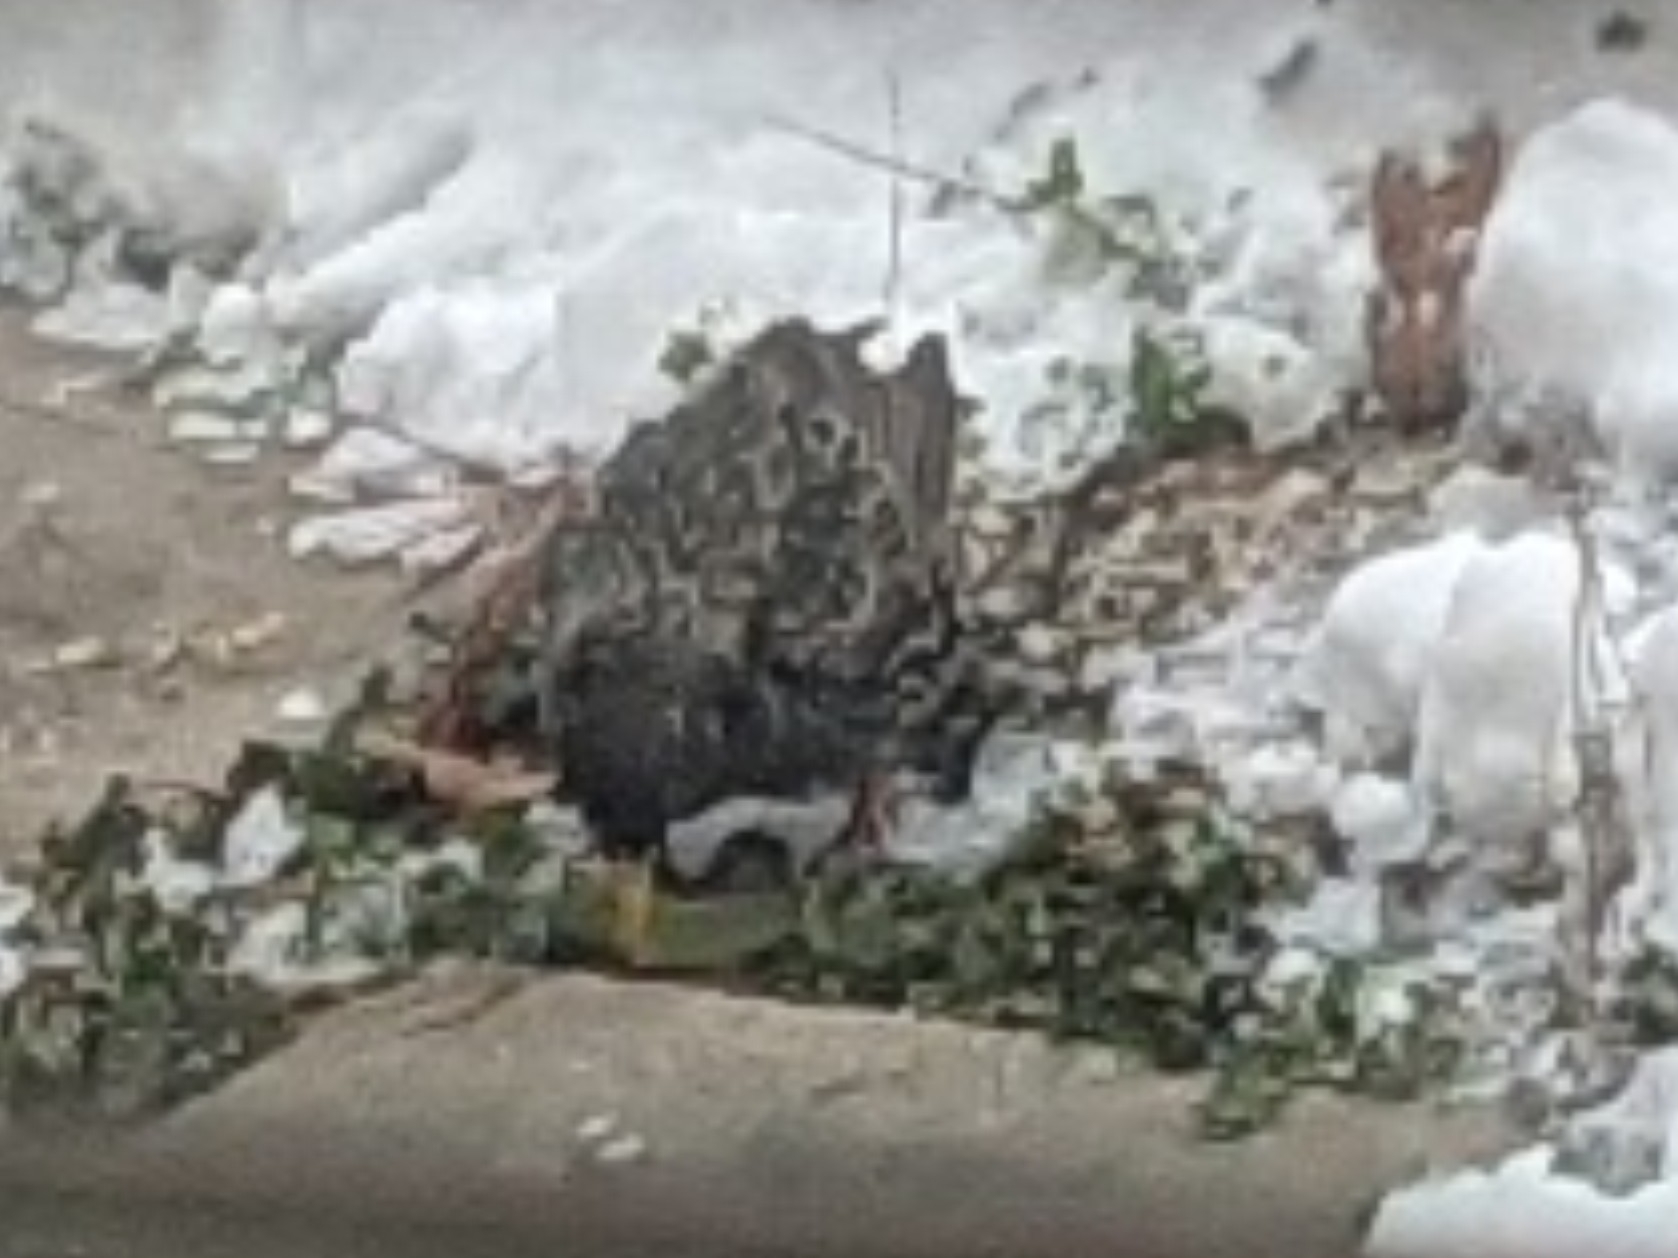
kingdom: Animalia
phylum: Chordata
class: Aves
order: Passeriformes
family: Sturnidae
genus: Sturnus
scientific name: Sturnus vulgaris
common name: Common starling
